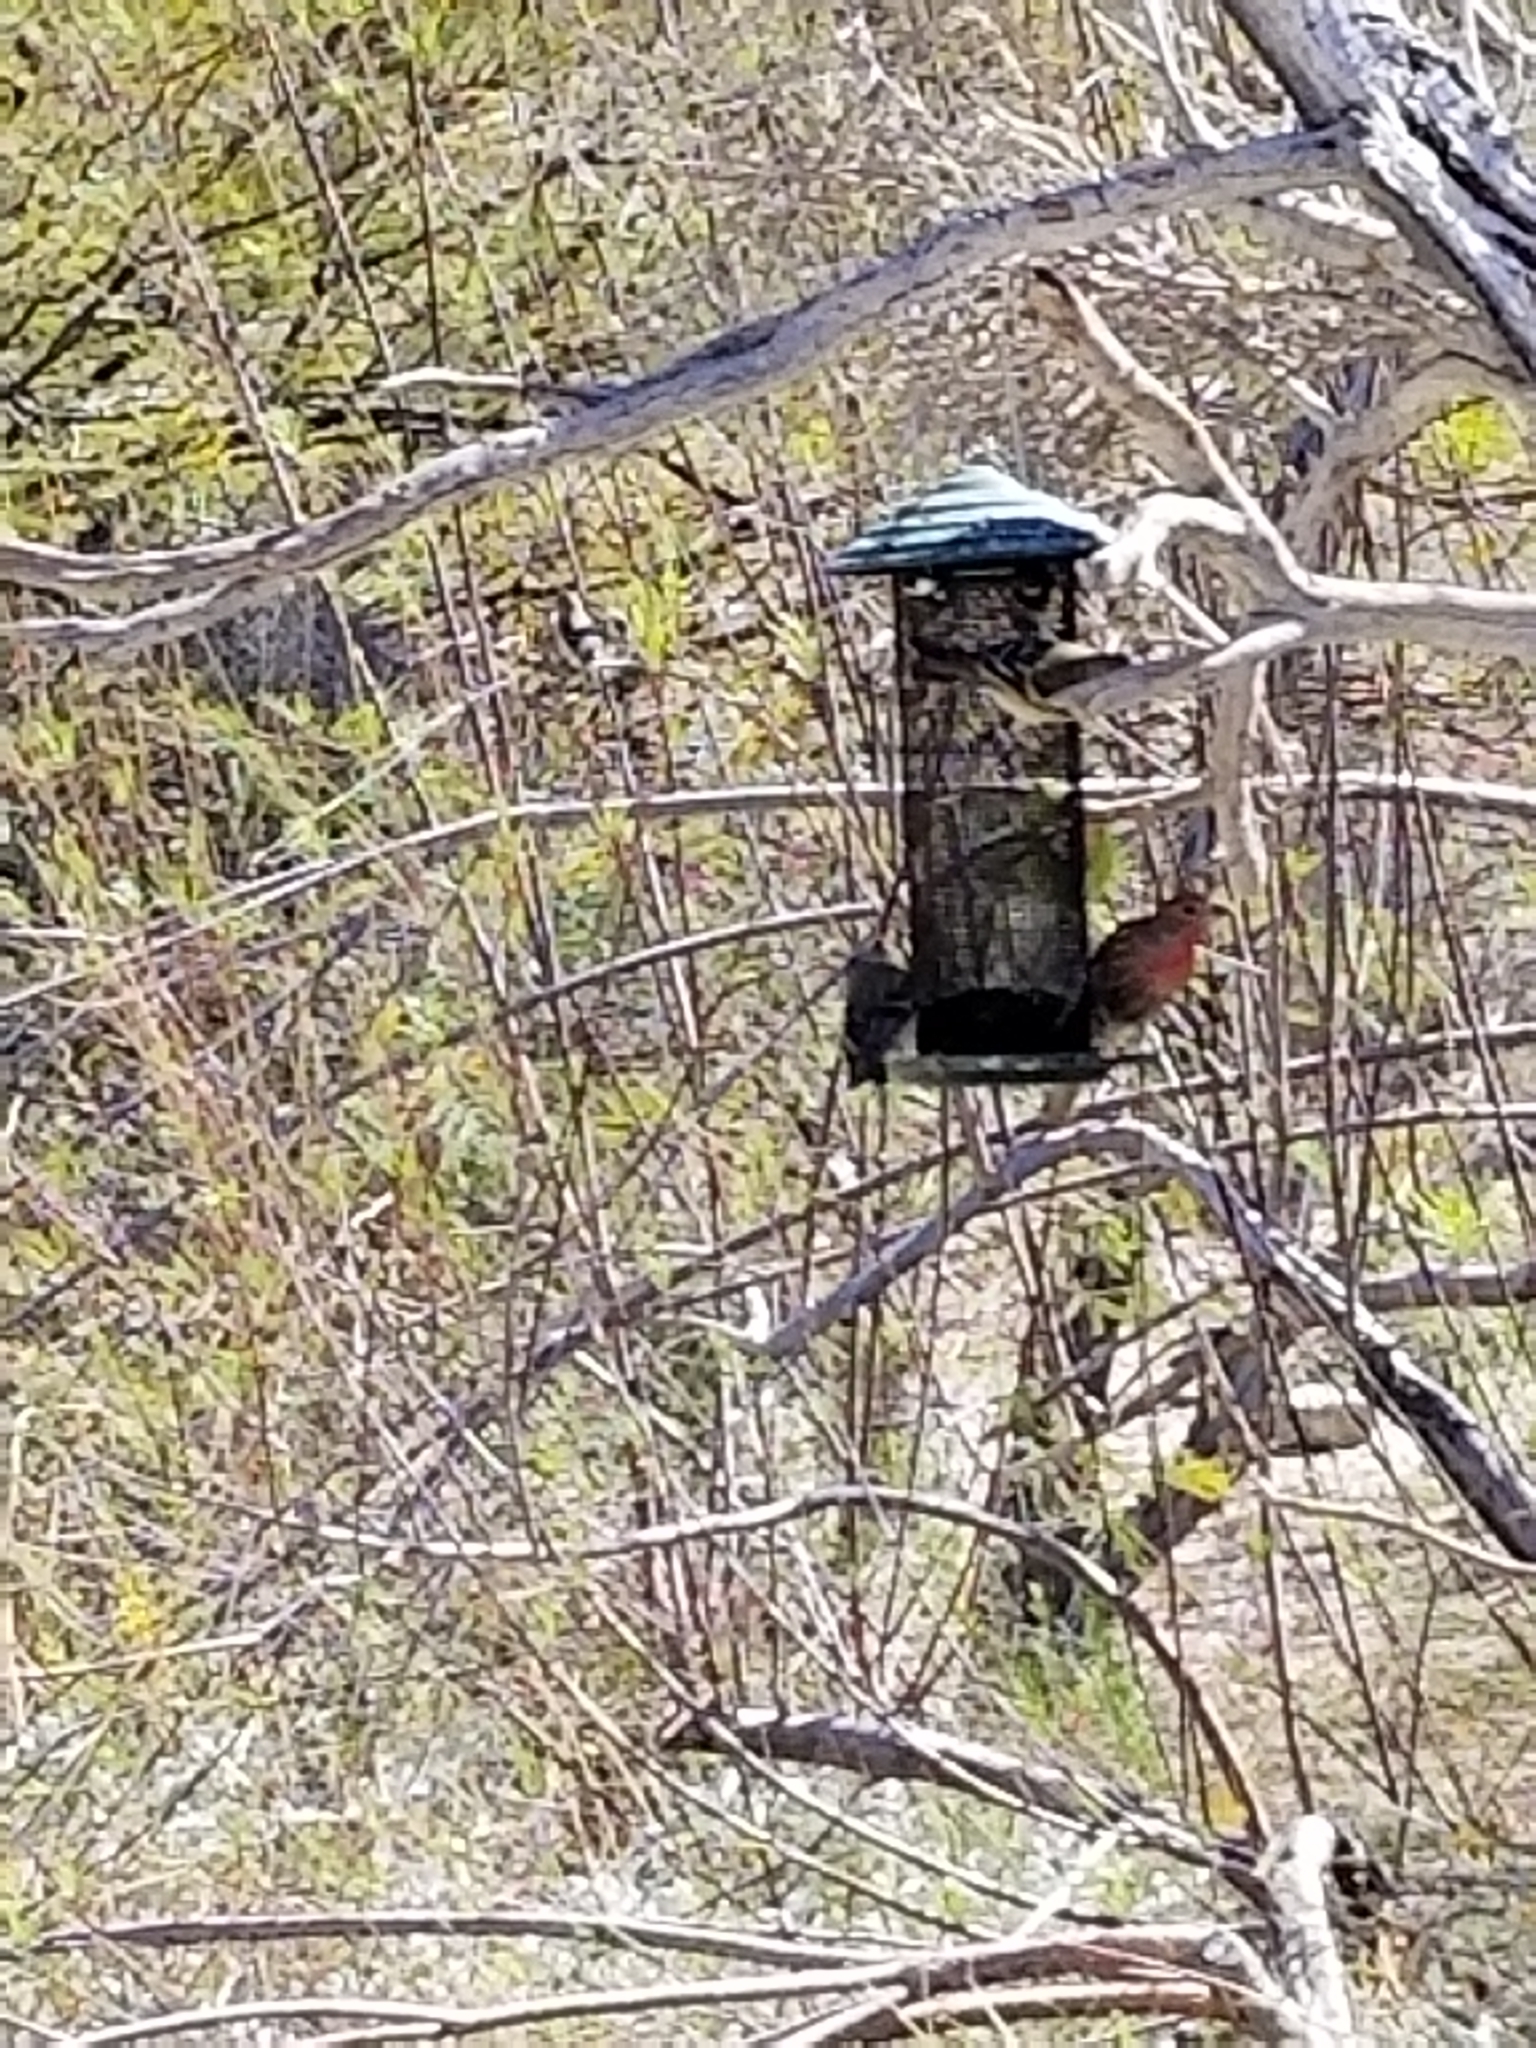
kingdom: Animalia
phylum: Chordata
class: Aves
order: Passeriformes
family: Fringillidae
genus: Haemorhous
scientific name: Haemorhous mexicanus
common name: House finch
